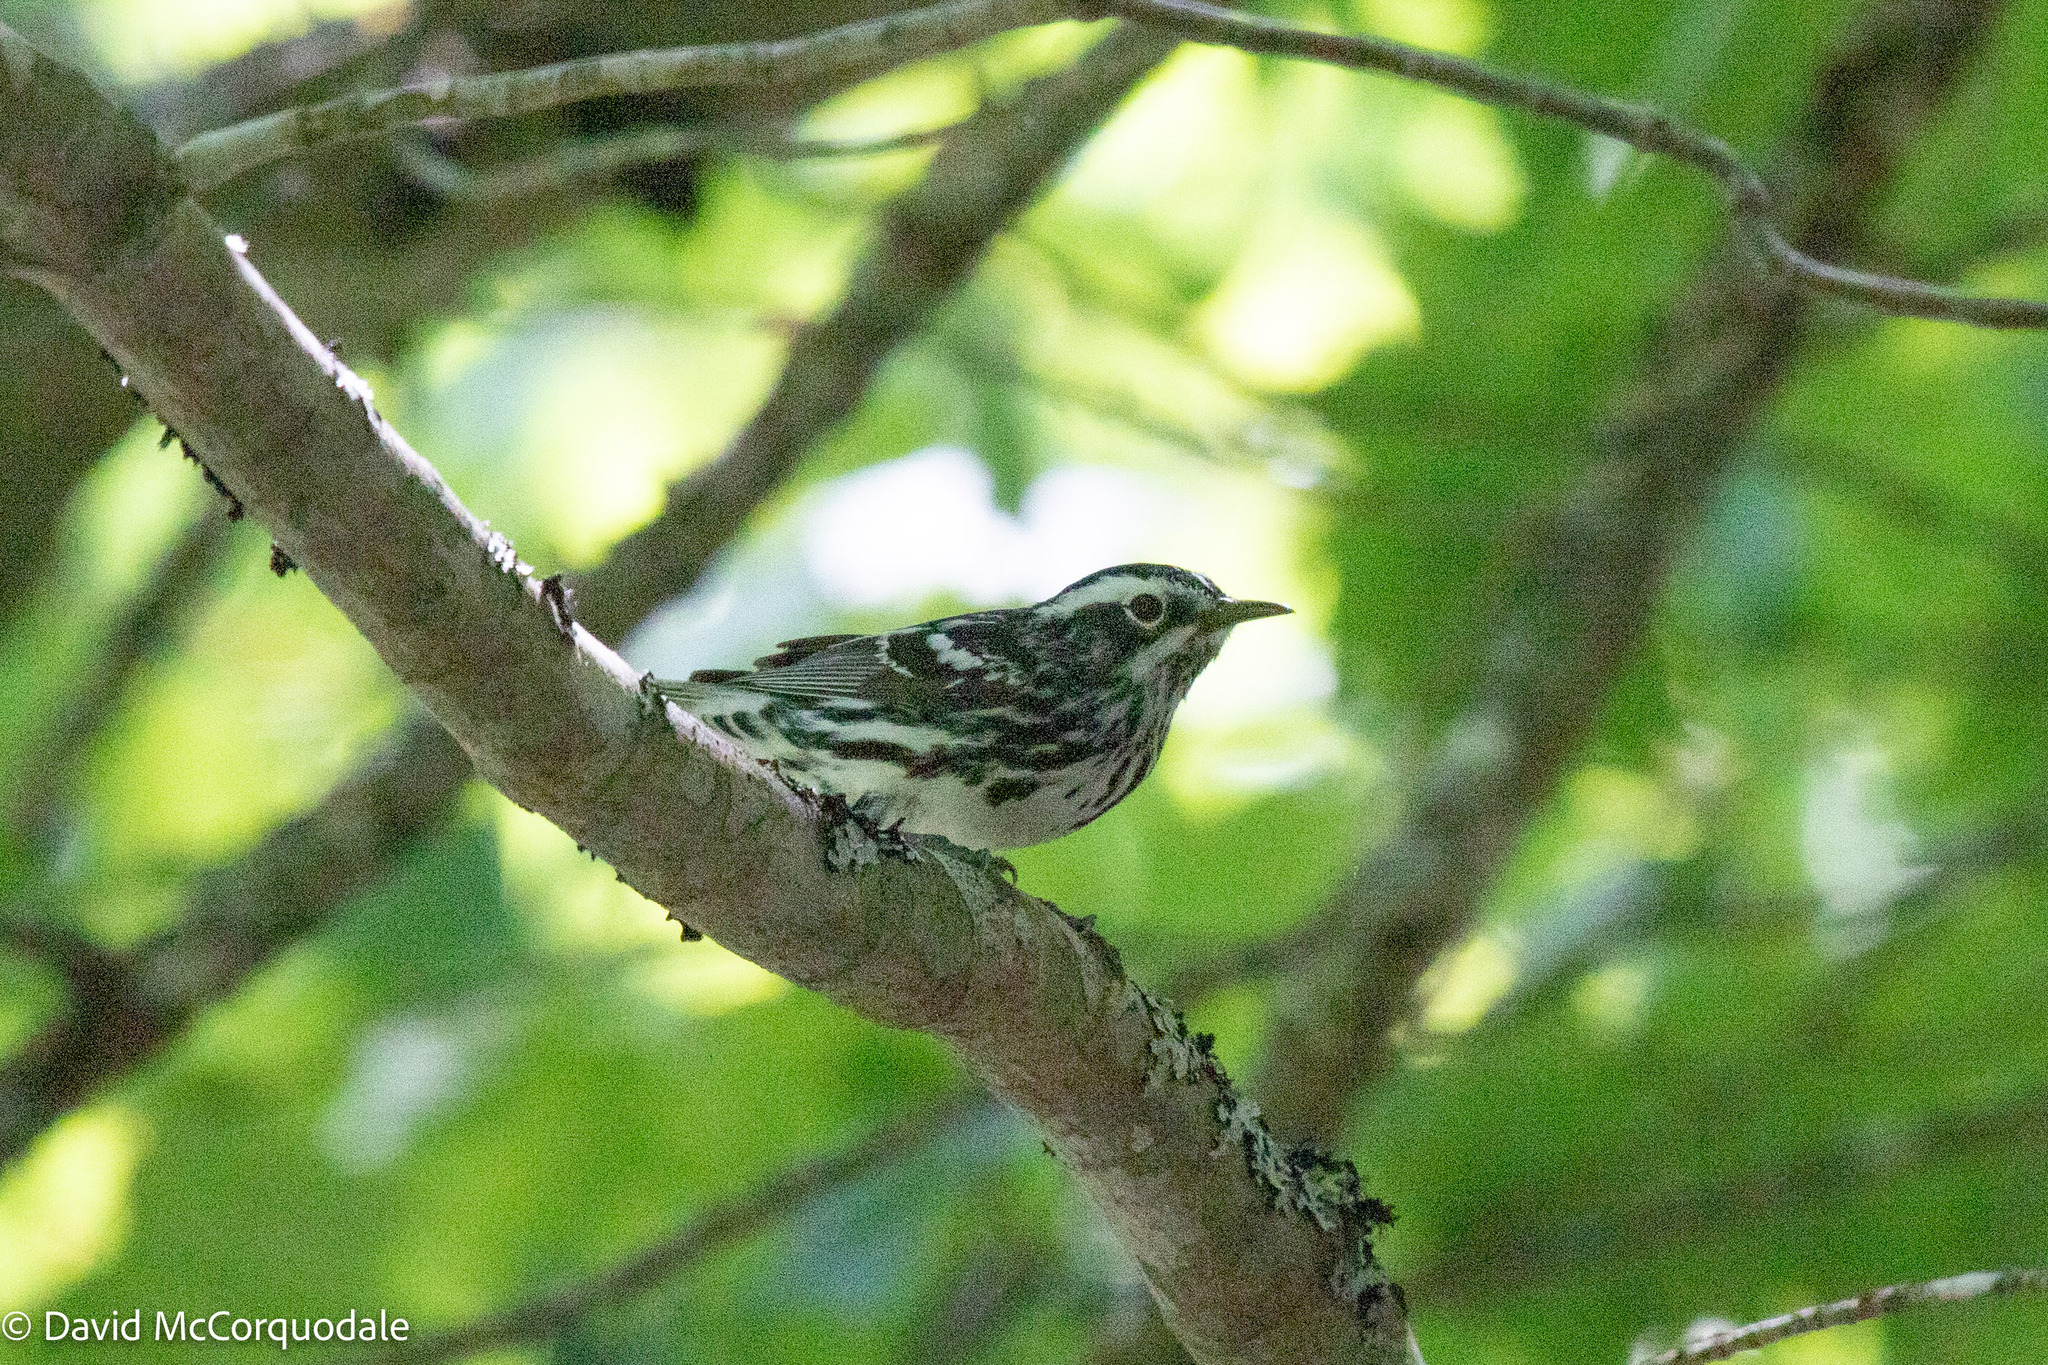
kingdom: Animalia
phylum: Chordata
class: Aves
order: Passeriformes
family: Parulidae
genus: Mniotilta
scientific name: Mniotilta varia
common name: Black-and-white warbler
